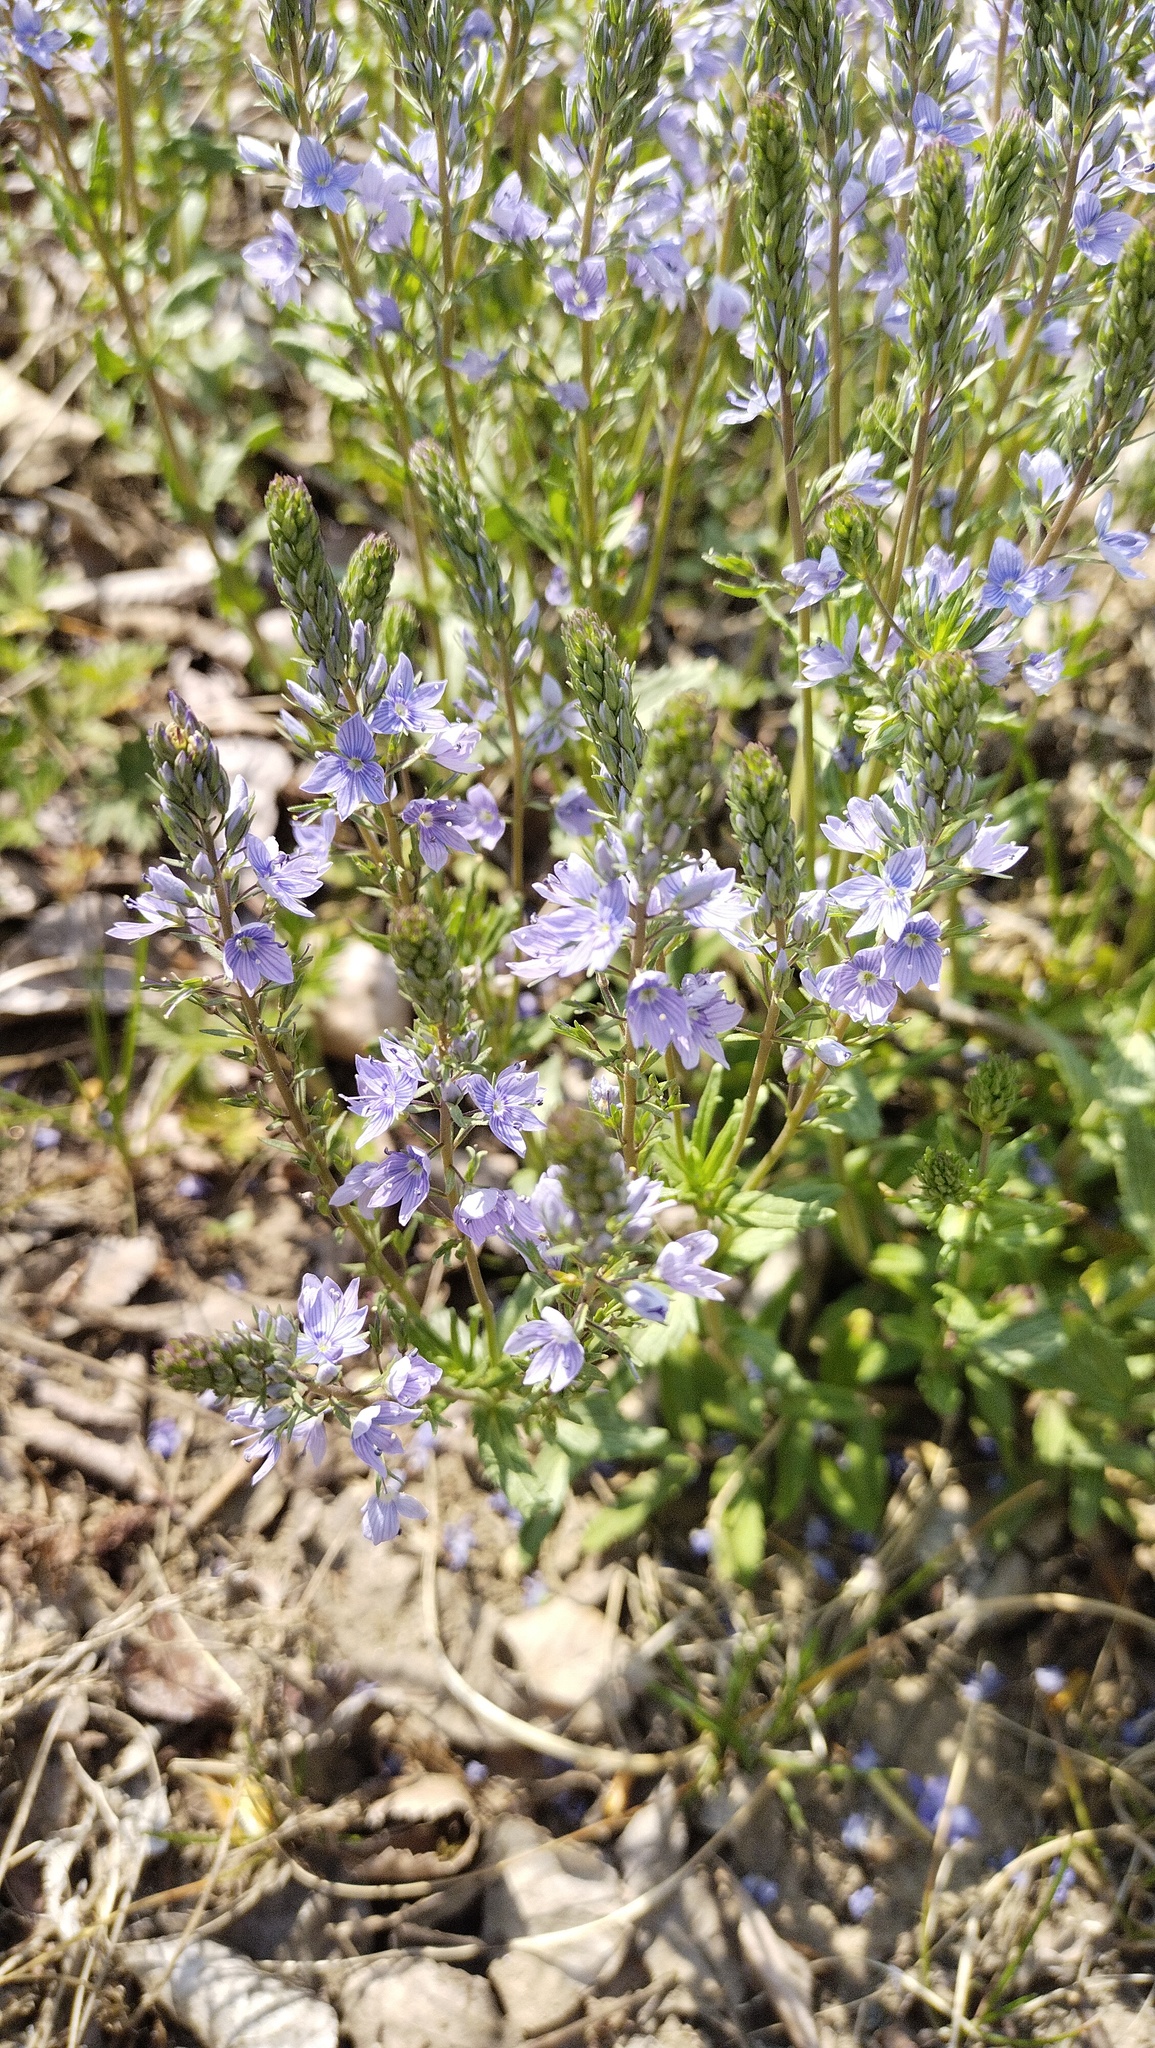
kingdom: Plantae
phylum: Tracheophyta
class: Magnoliopsida
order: Lamiales
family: Plantaginaceae
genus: Veronica
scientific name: Veronica prostrata
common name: Prostrate speedwell
